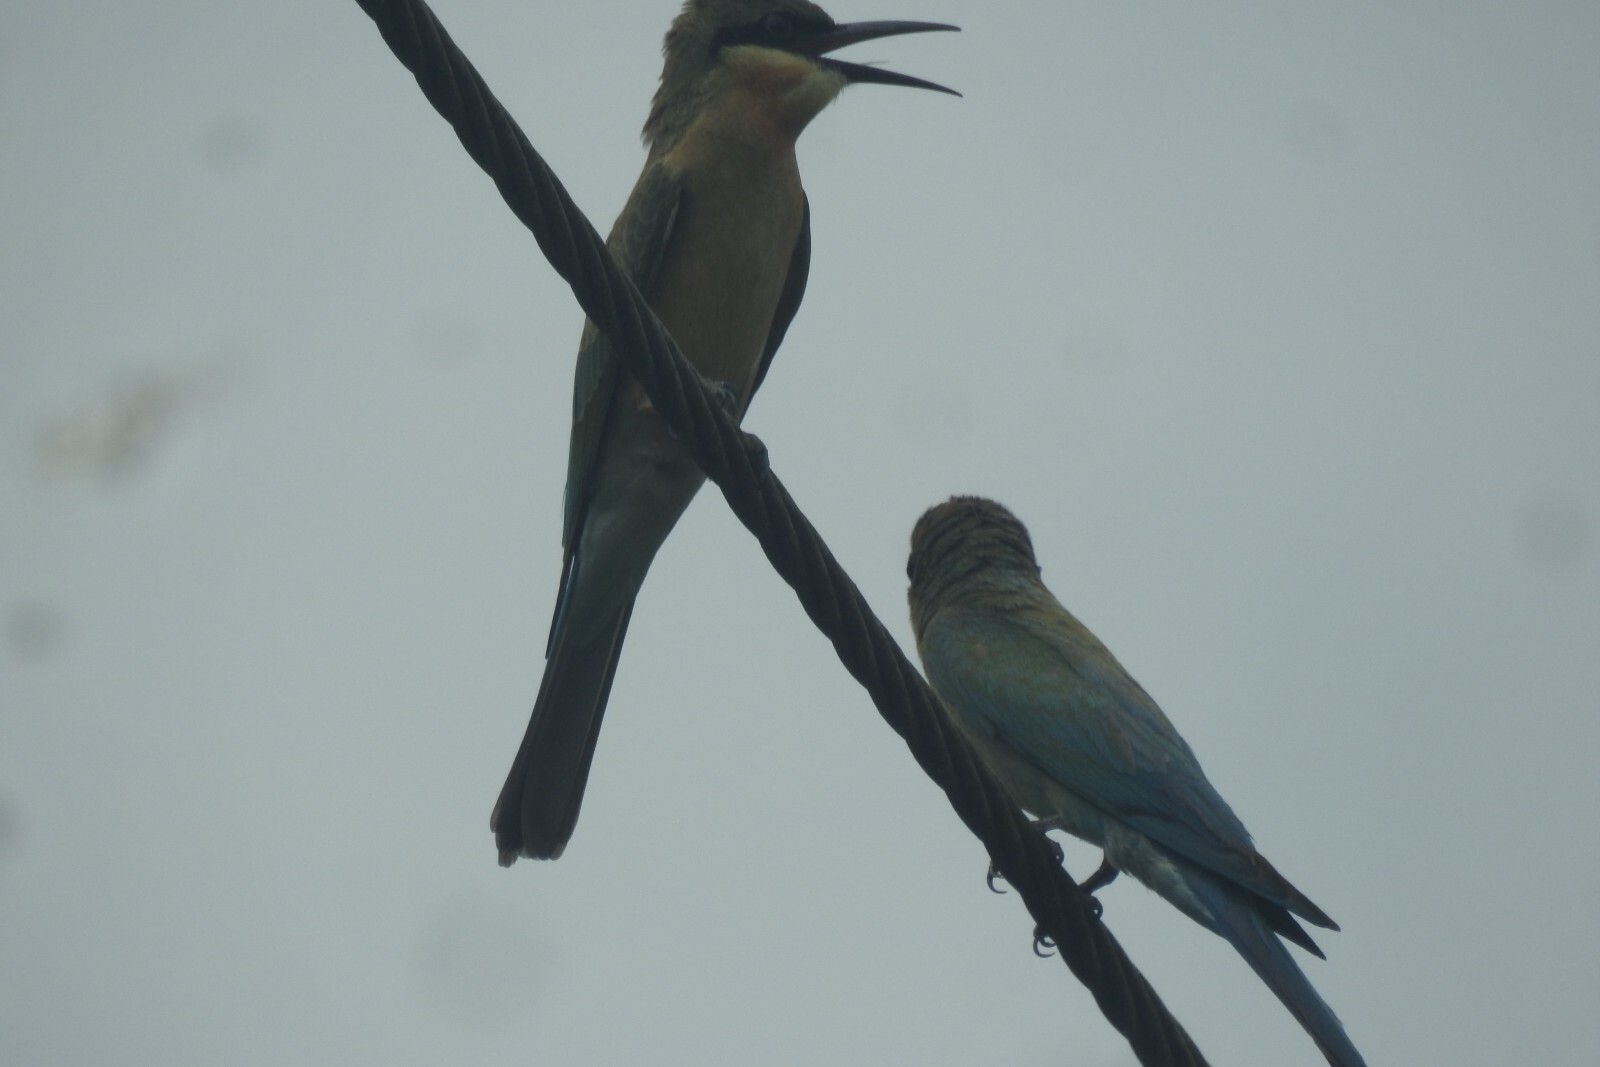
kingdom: Animalia
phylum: Chordata
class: Aves
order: Coraciiformes
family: Meropidae
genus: Merops
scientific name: Merops philippinus
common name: Blue-tailed bee-eater
